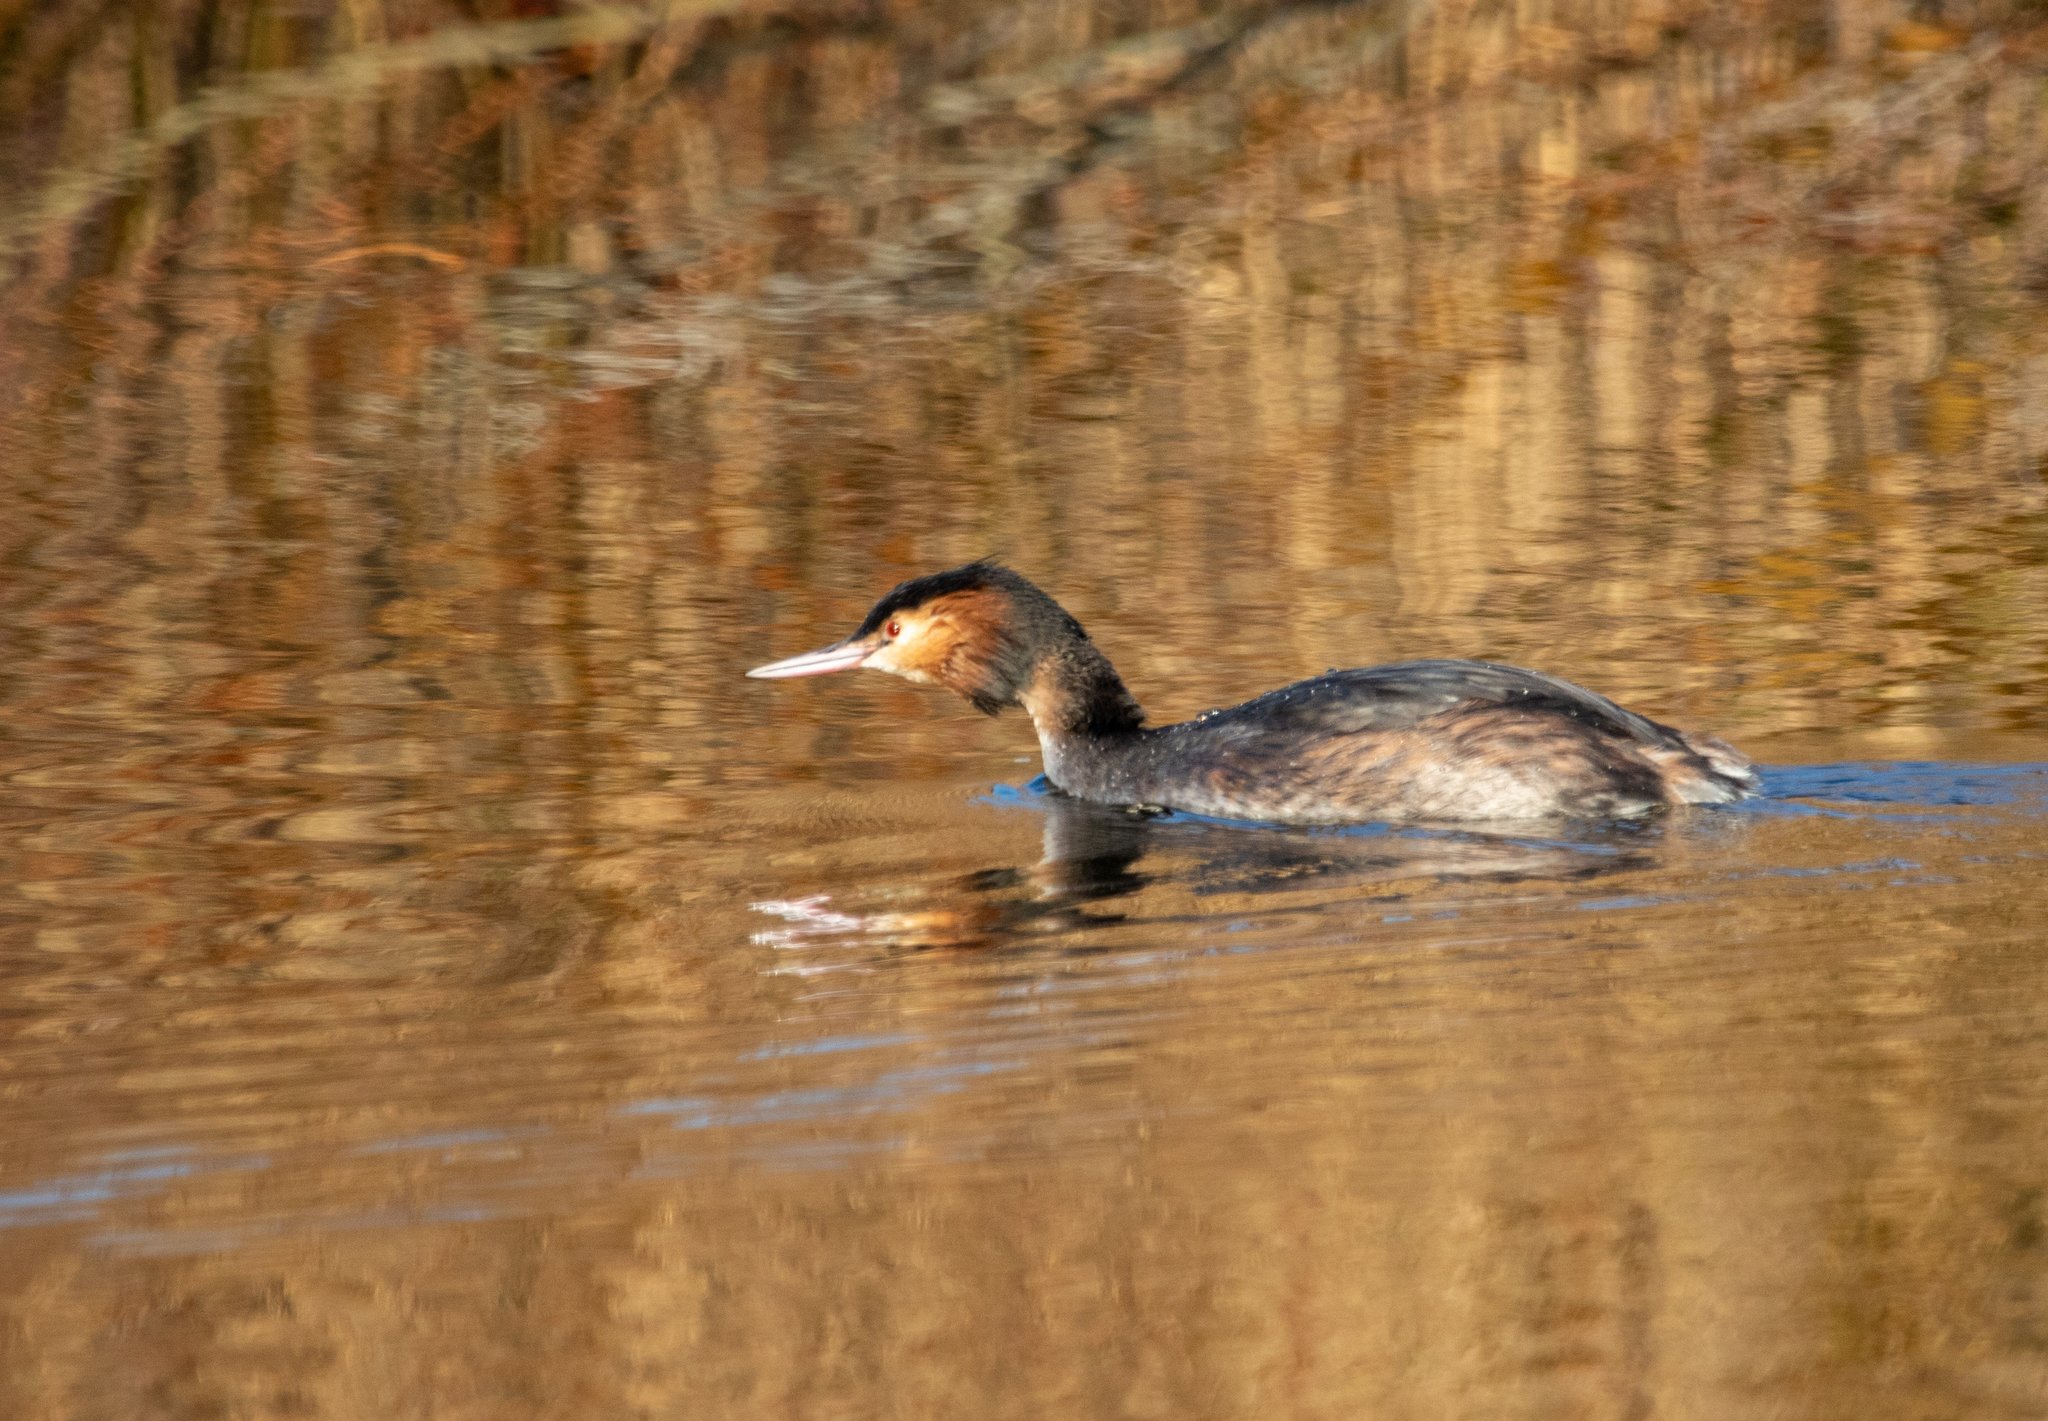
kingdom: Animalia
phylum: Chordata
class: Aves
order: Podicipediformes
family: Podicipedidae
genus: Podiceps
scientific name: Podiceps cristatus
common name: Great crested grebe
